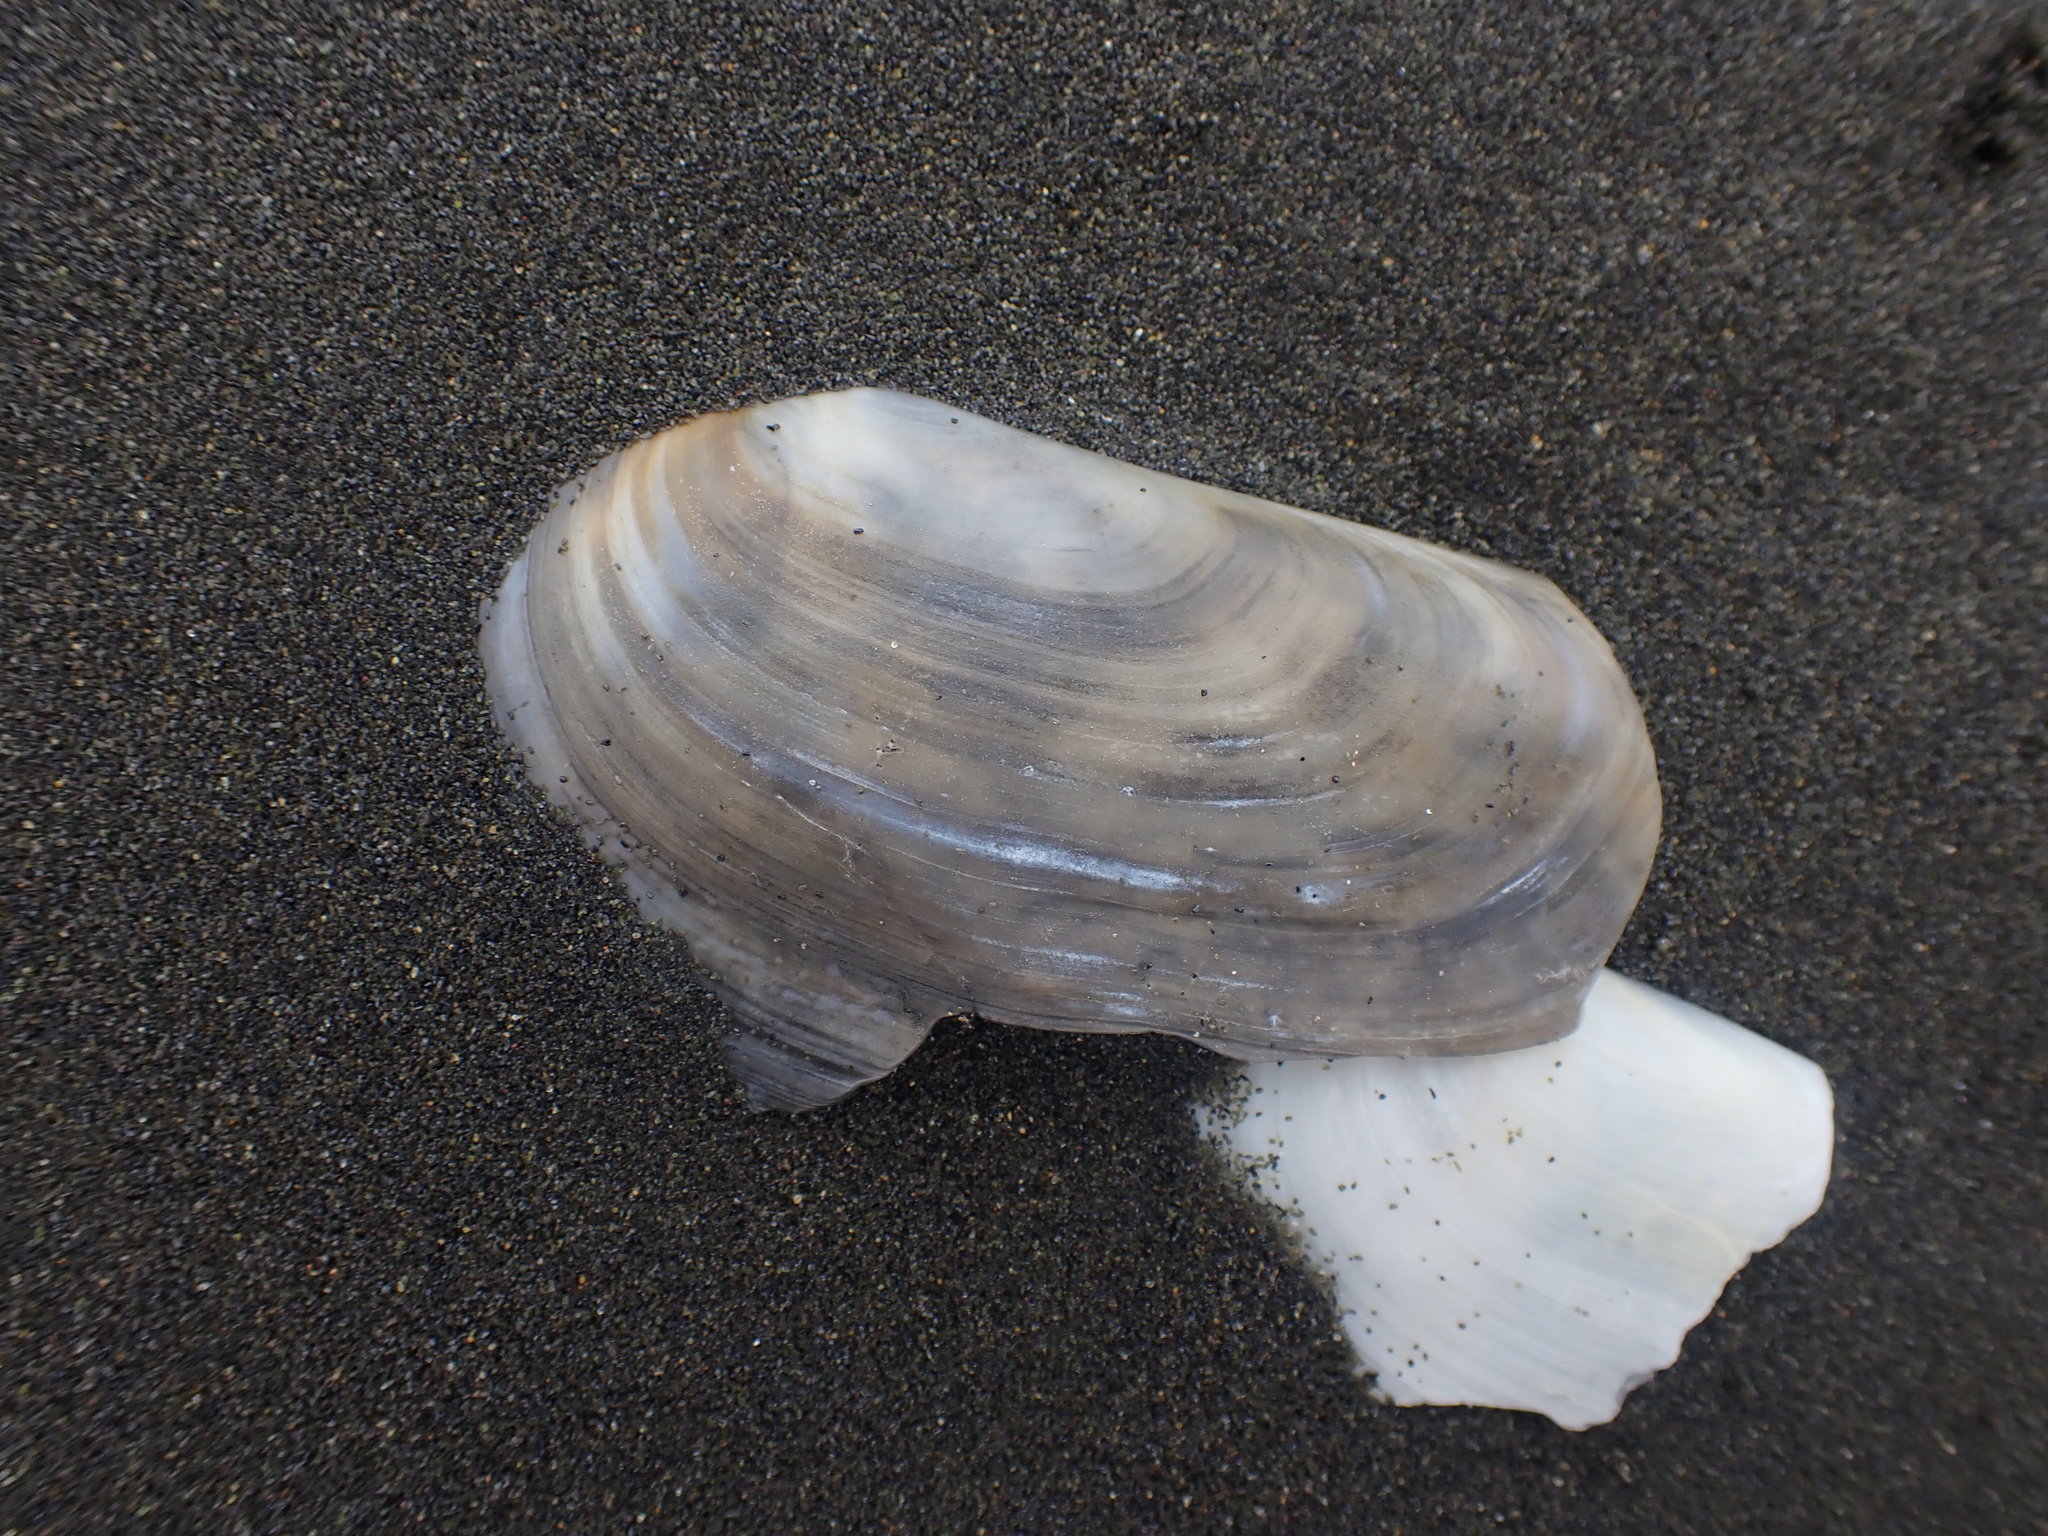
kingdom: Animalia
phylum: Mollusca
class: Bivalvia
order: Venerida
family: Mactridae
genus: Zenatia
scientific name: Zenatia acinaces
